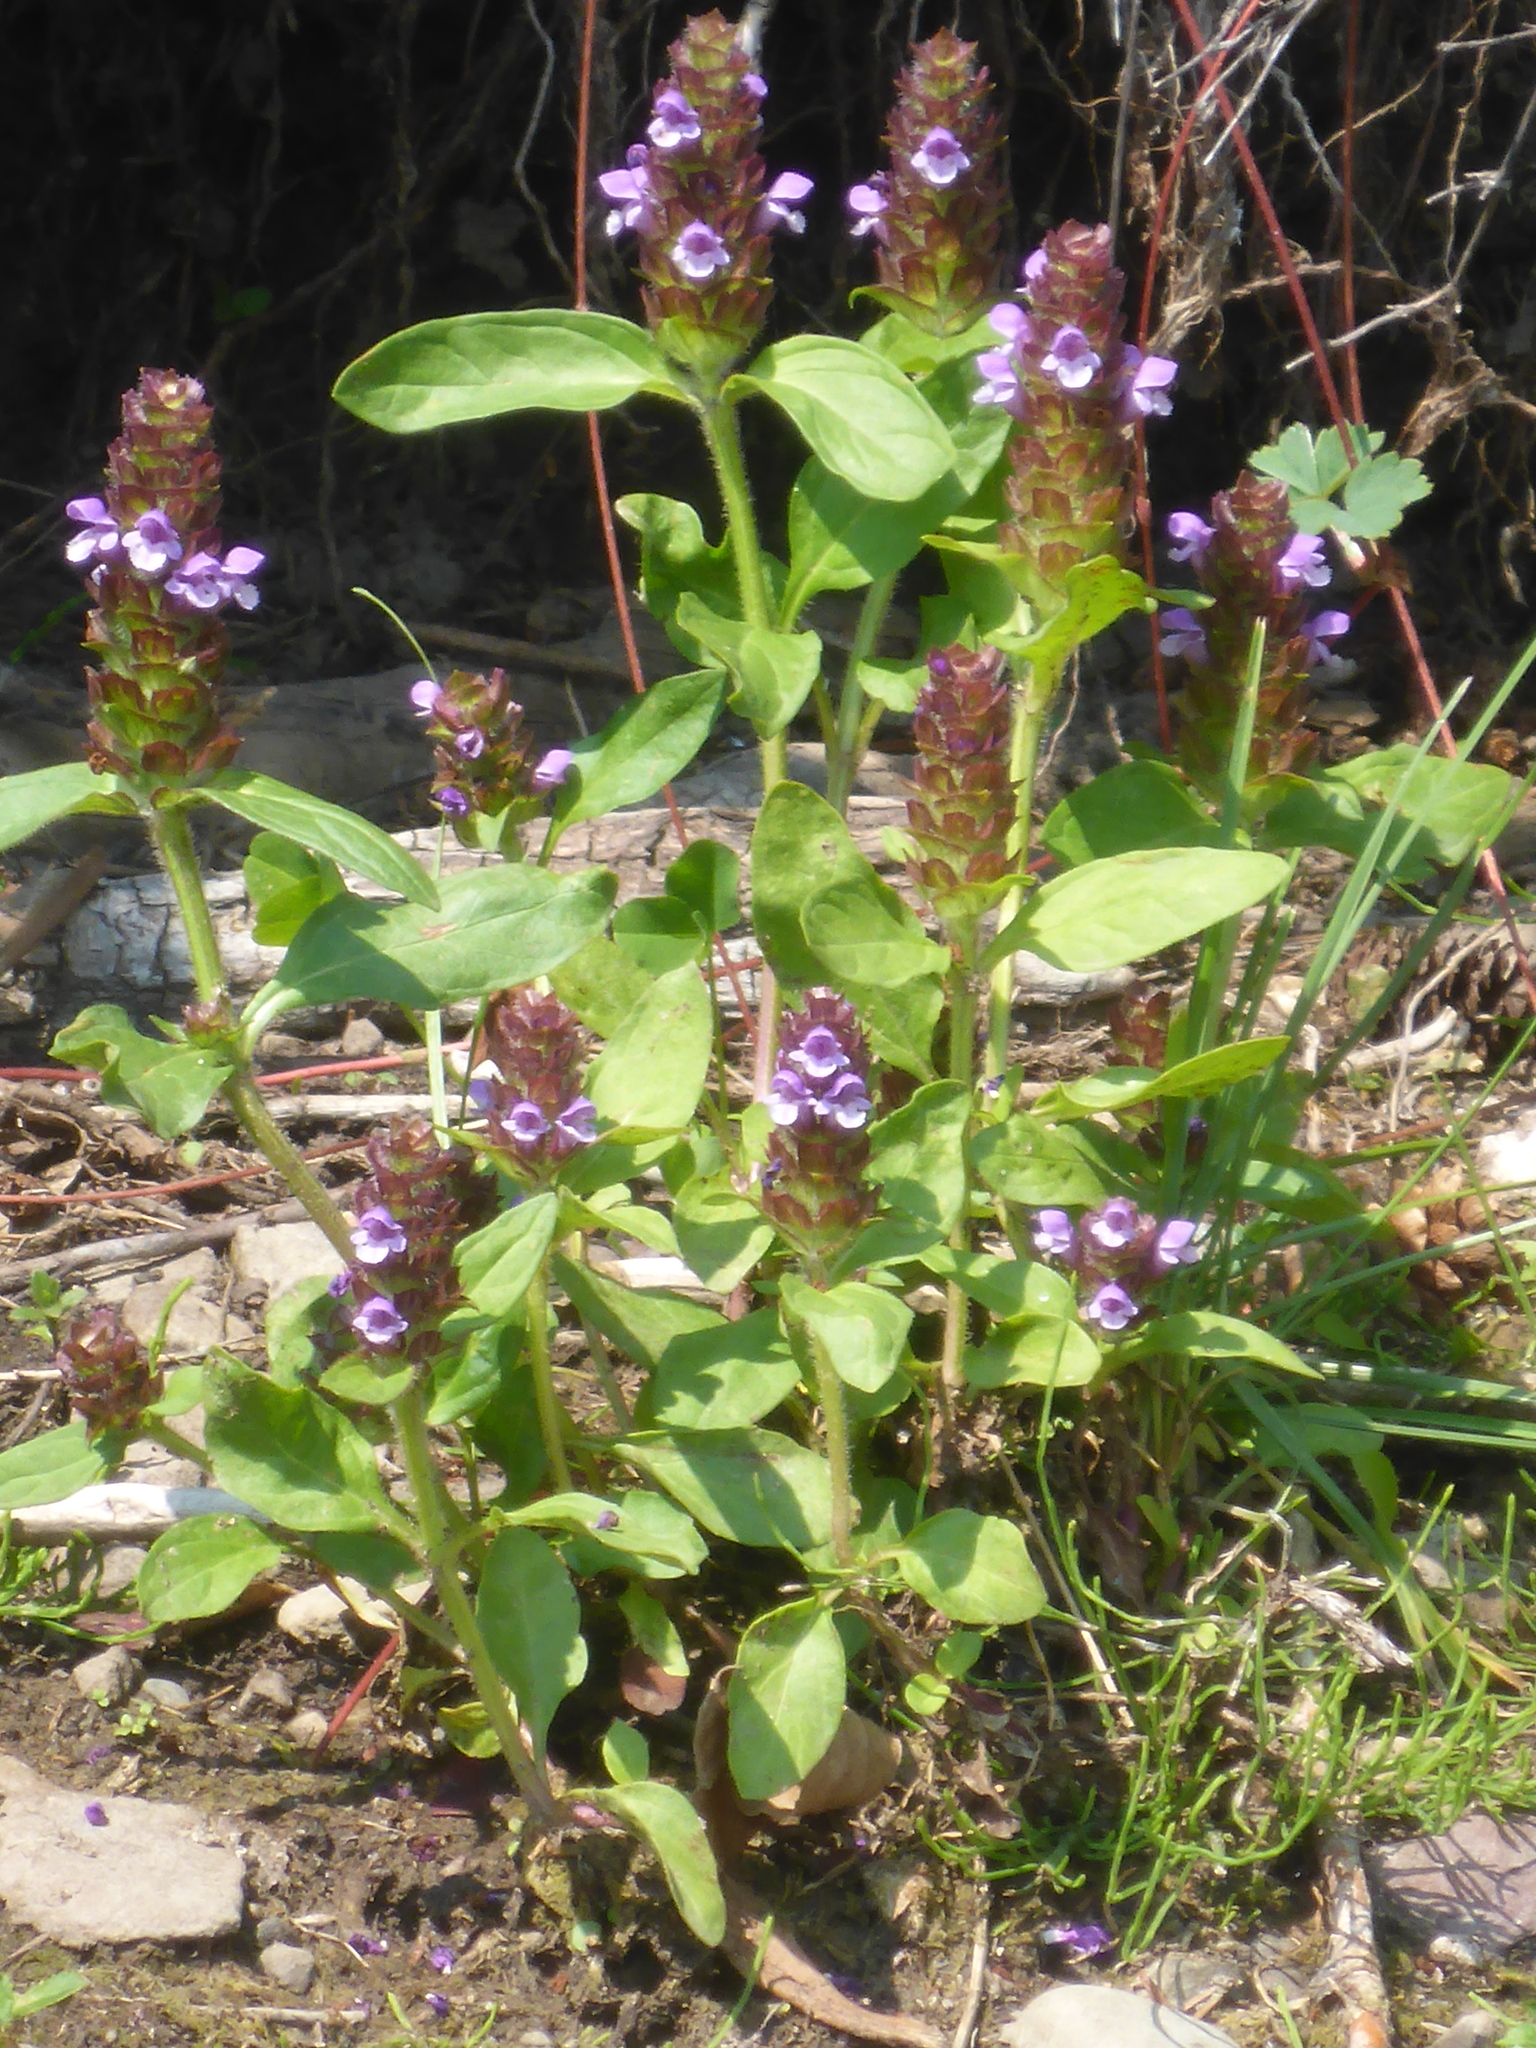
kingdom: Plantae
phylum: Tracheophyta
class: Magnoliopsida
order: Lamiales
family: Lamiaceae
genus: Prunella
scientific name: Prunella vulgaris
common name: Heal-all
